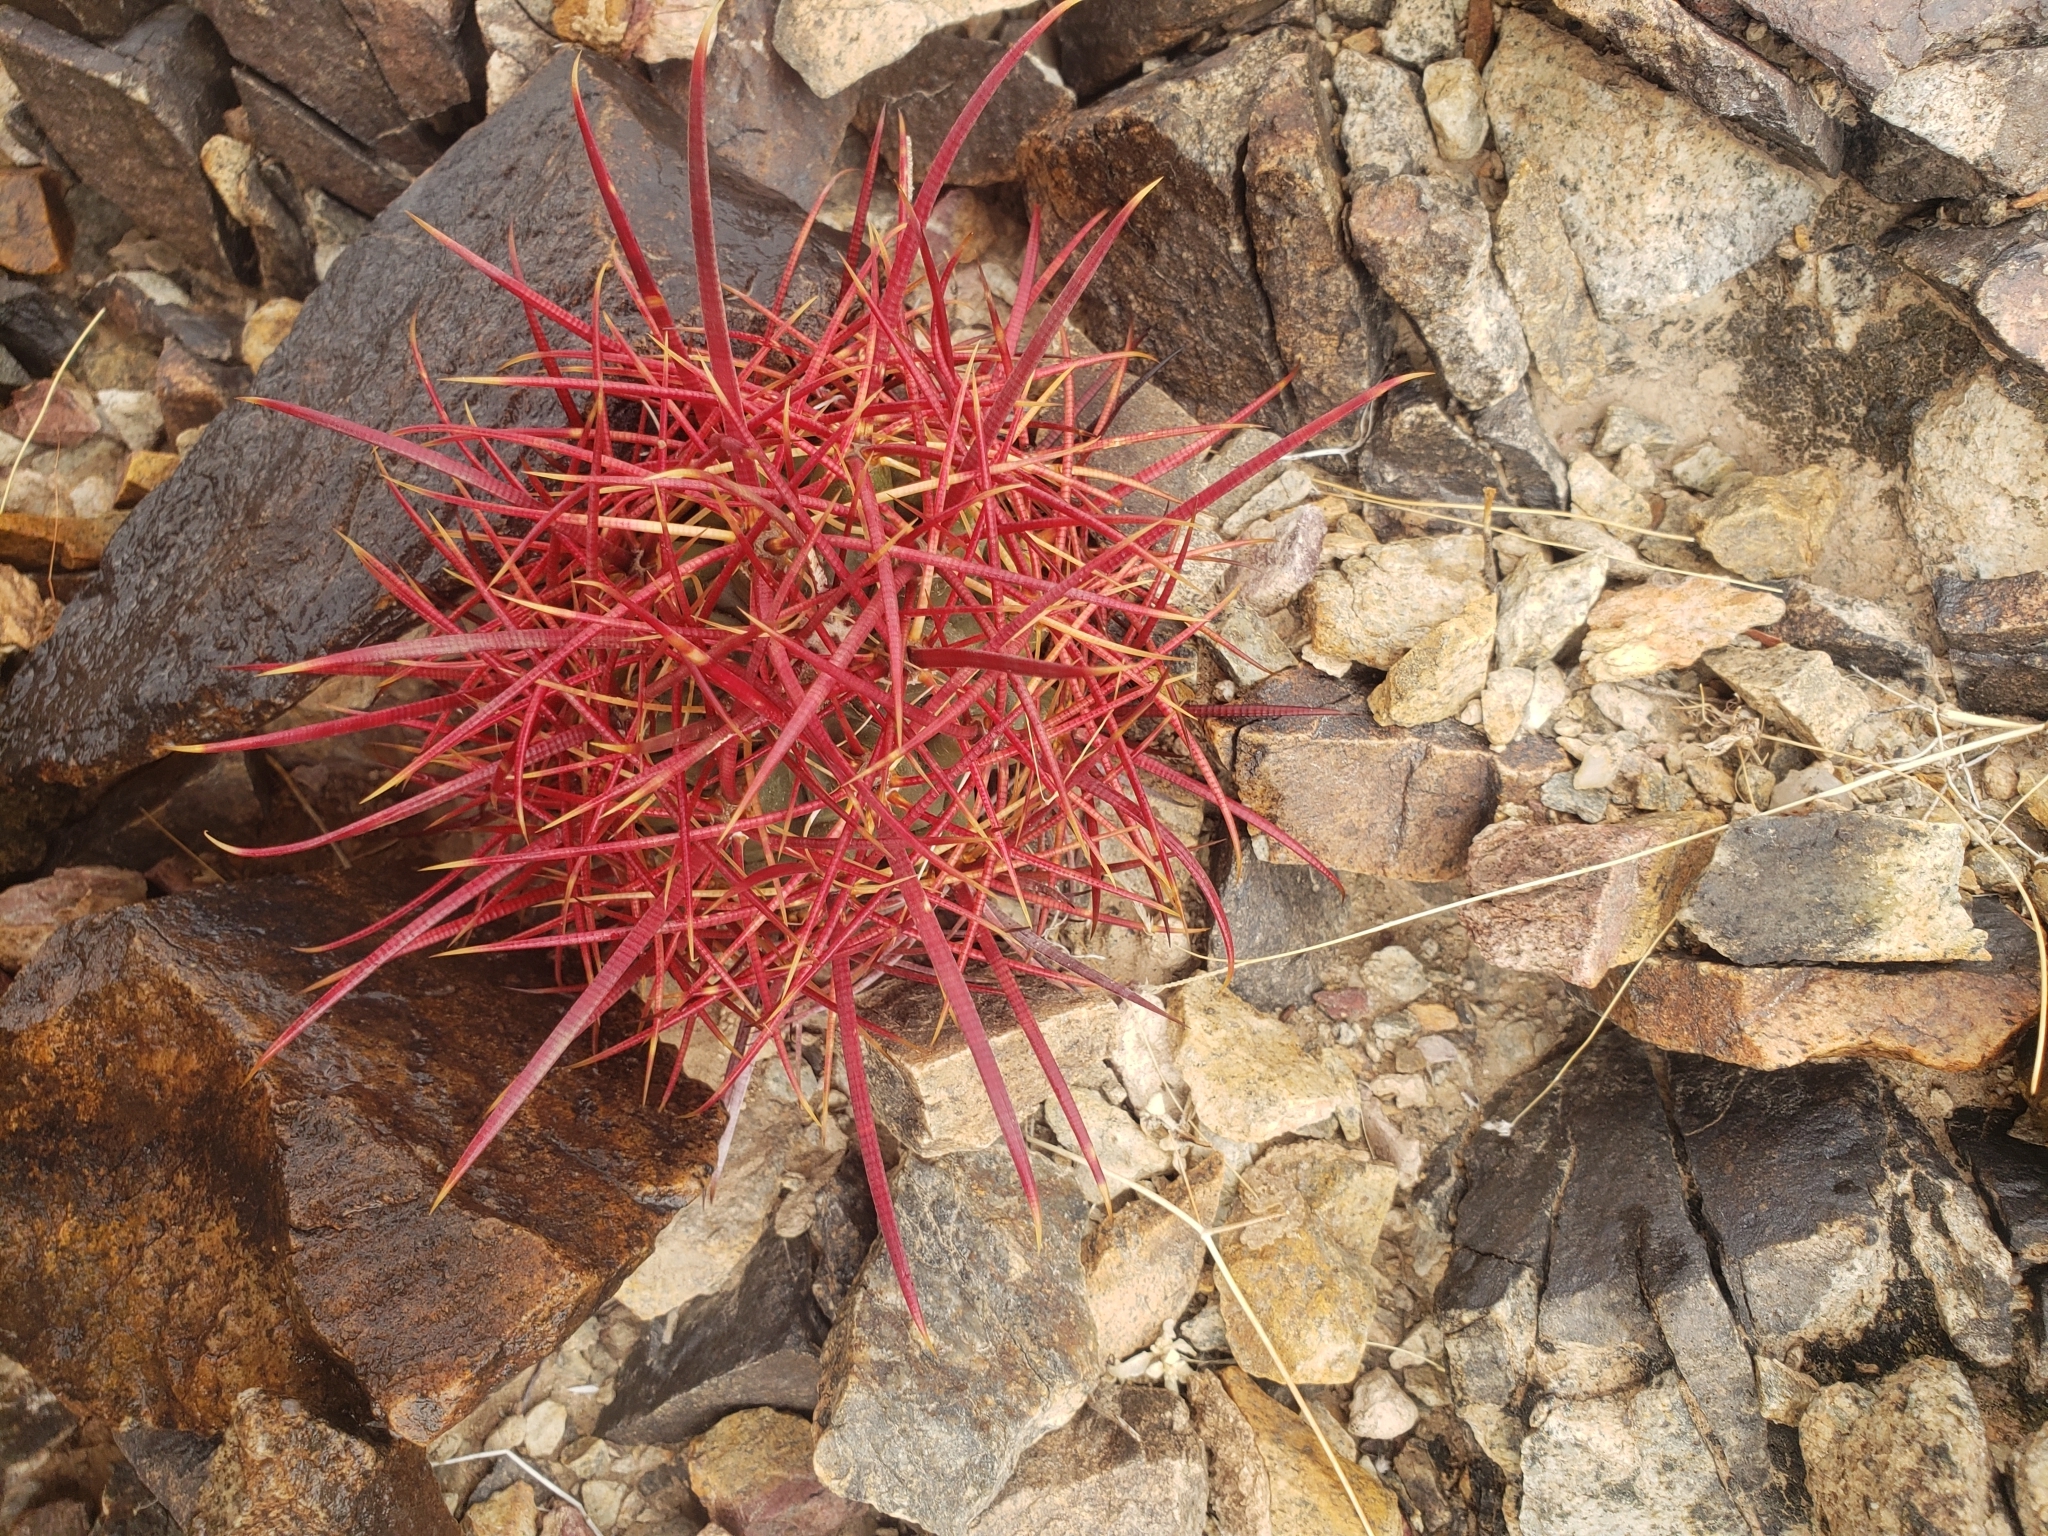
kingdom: Plantae
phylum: Tracheophyta
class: Magnoliopsida
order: Caryophyllales
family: Cactaceae
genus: Ferocactus
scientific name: Ferocactus cylindraceus
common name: California barrel cactus
